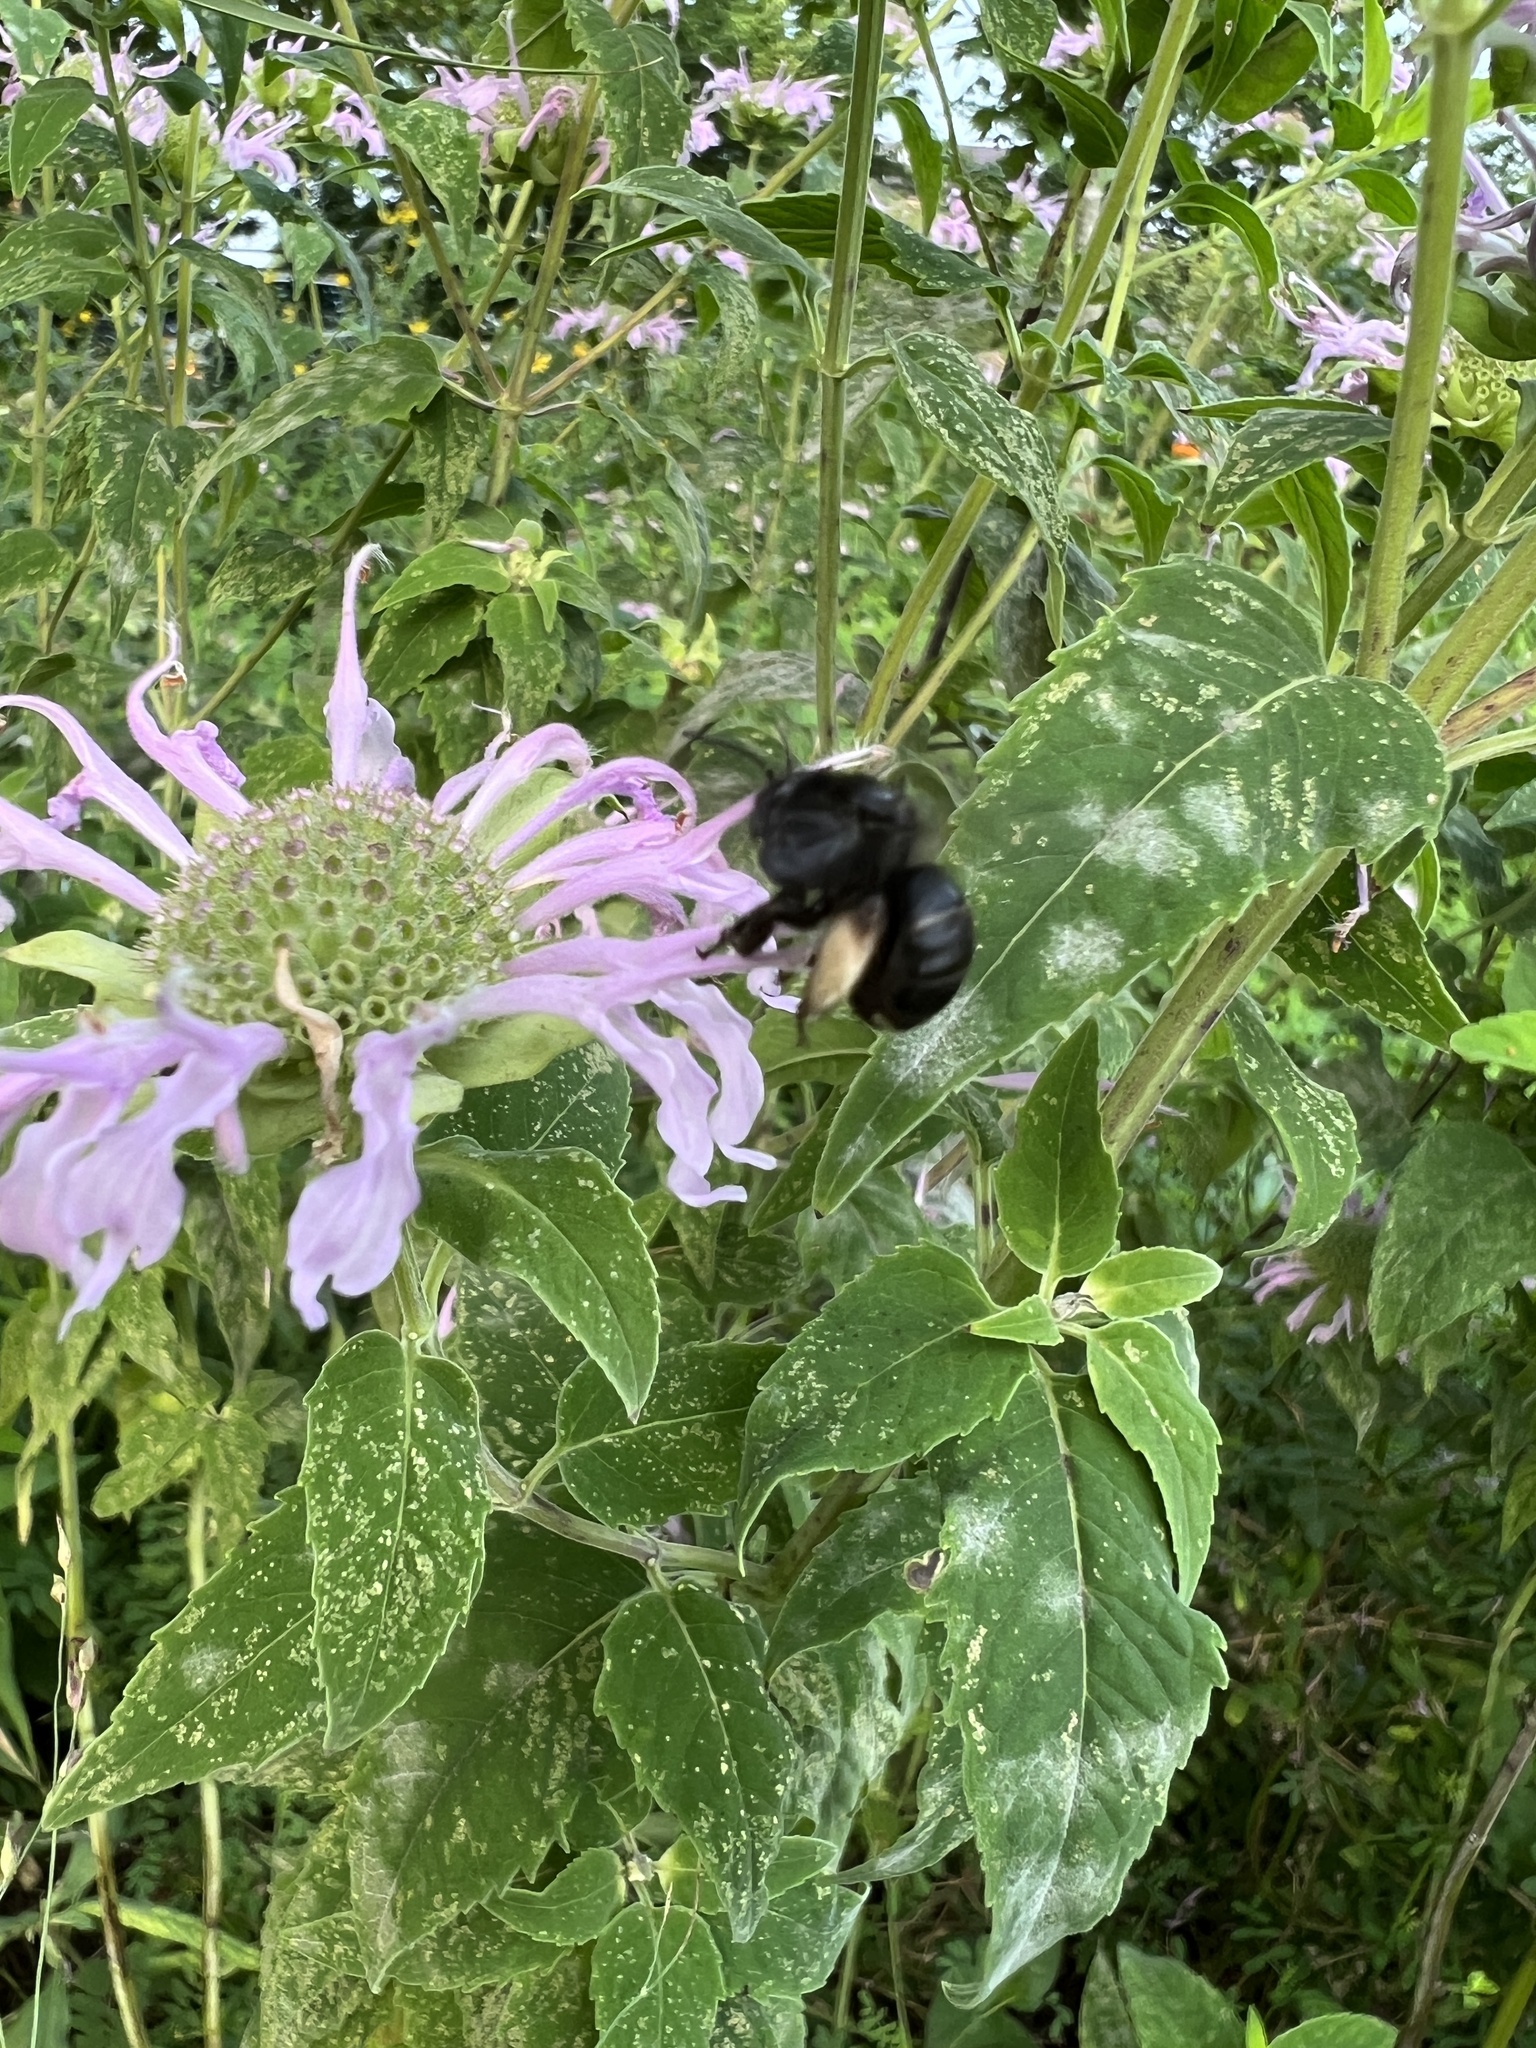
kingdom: Animalia
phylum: Arthropoda
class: Insecta
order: Hymenoptera
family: Apidae
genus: Melissodes
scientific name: Melissodes bimaculatus
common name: Two-spotted long-horned bee
